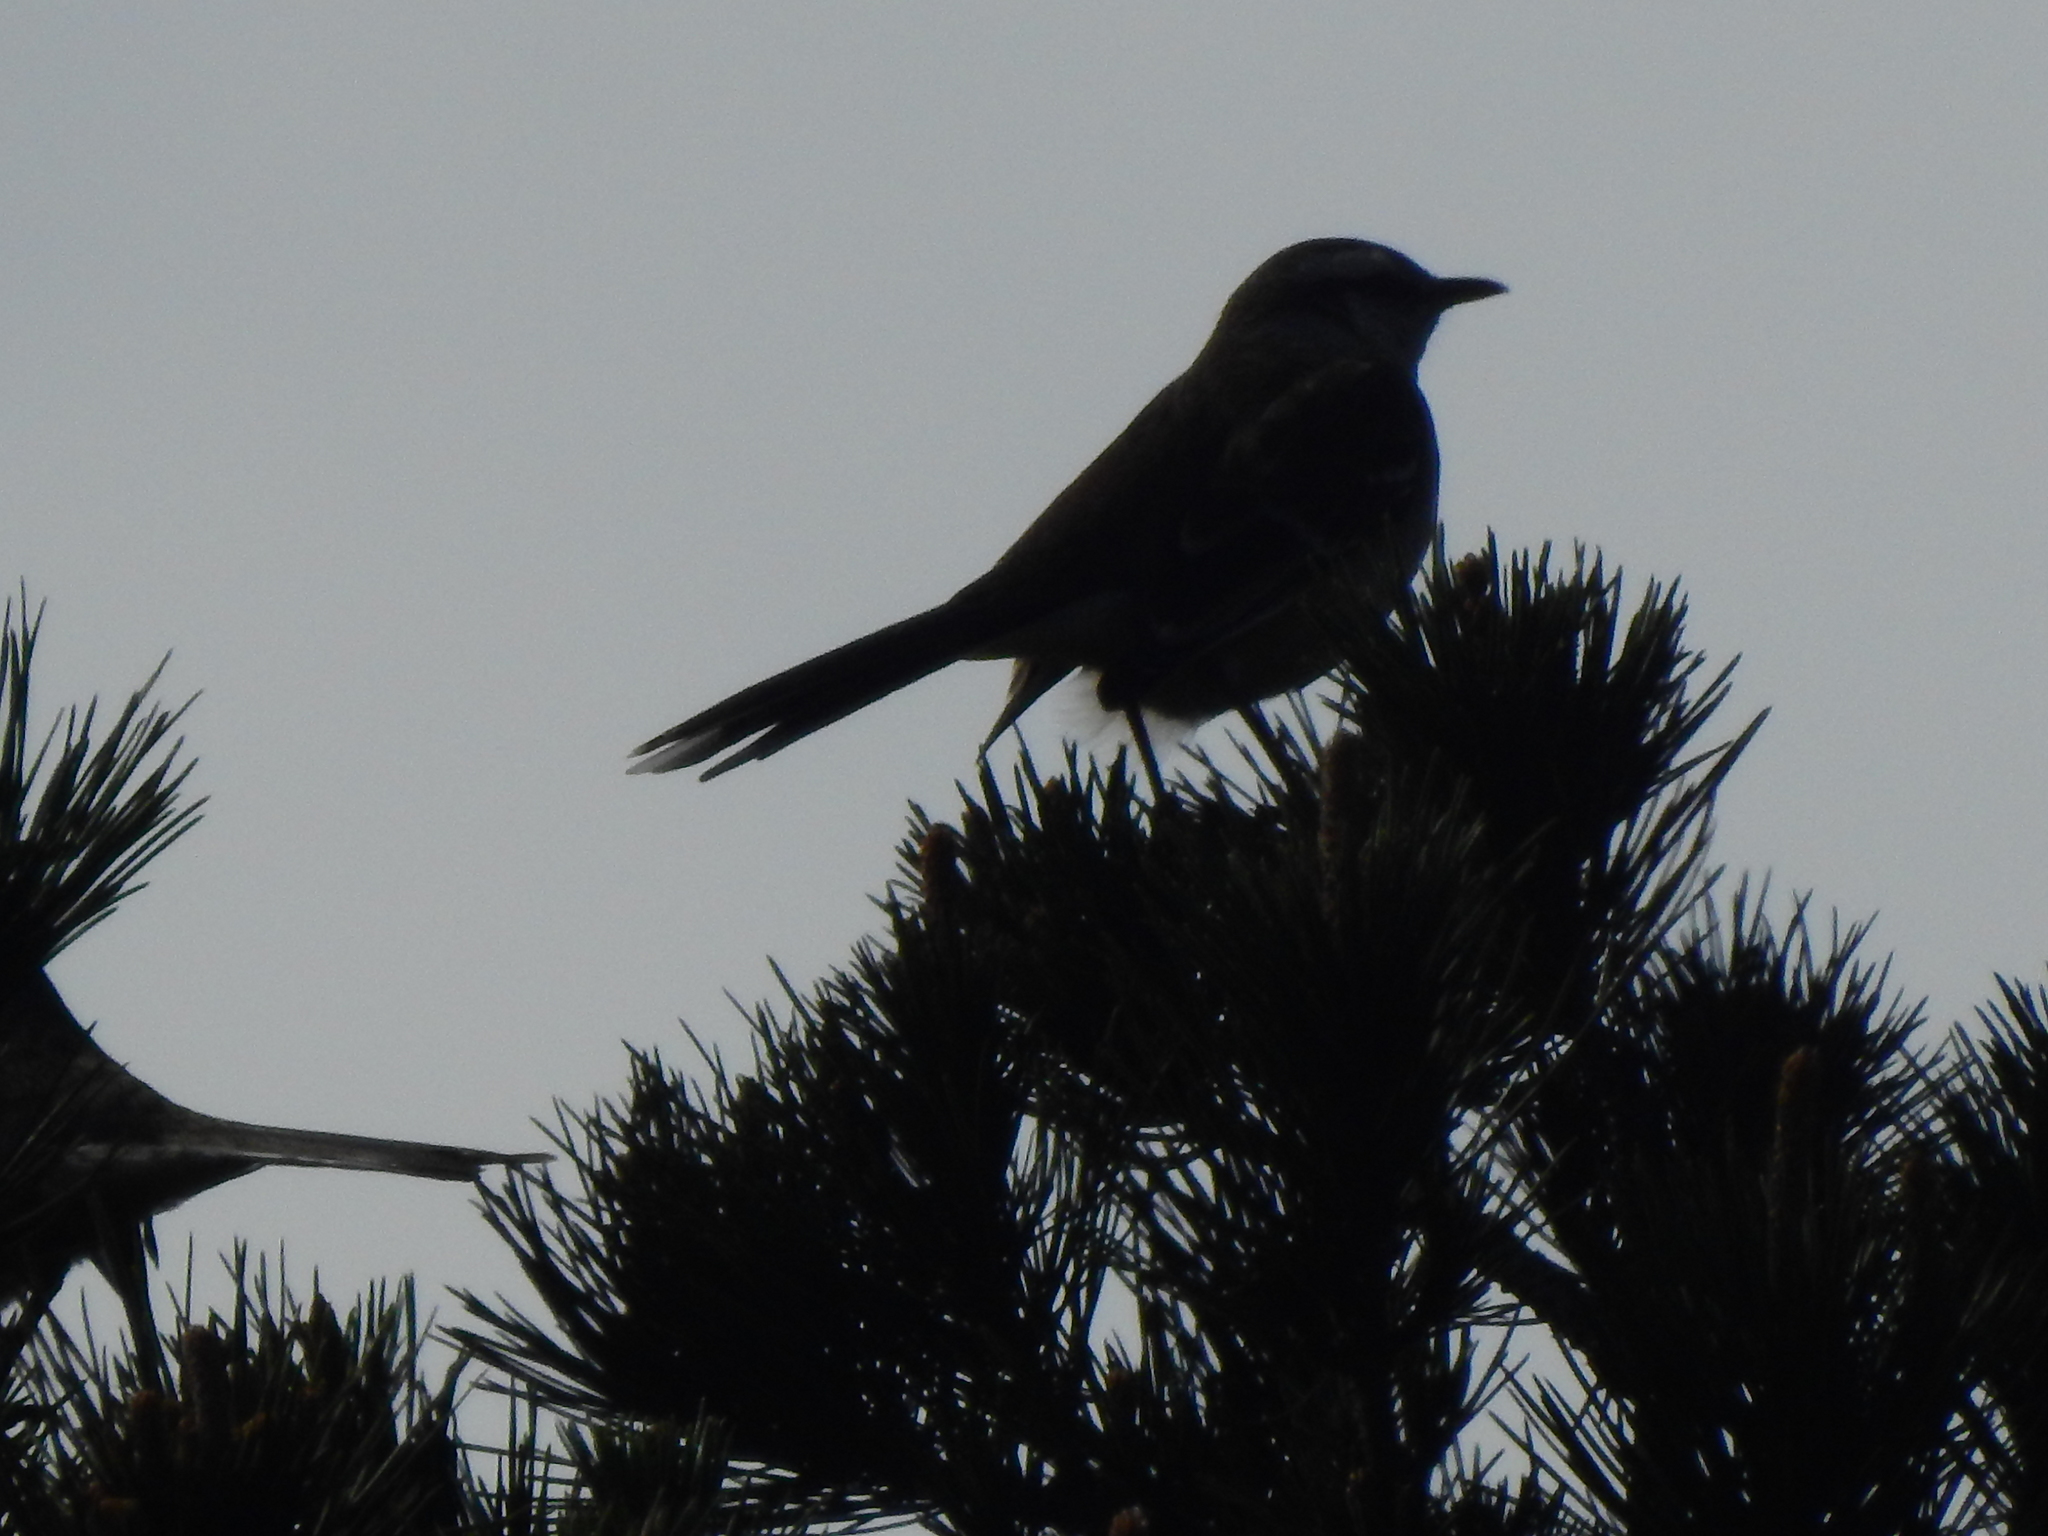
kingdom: Animalia
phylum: Chordata
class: Aves
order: Passeriformes
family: Mimidae
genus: Mimus
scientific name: Mimus saturninus
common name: Chalk-browed mockingbird
